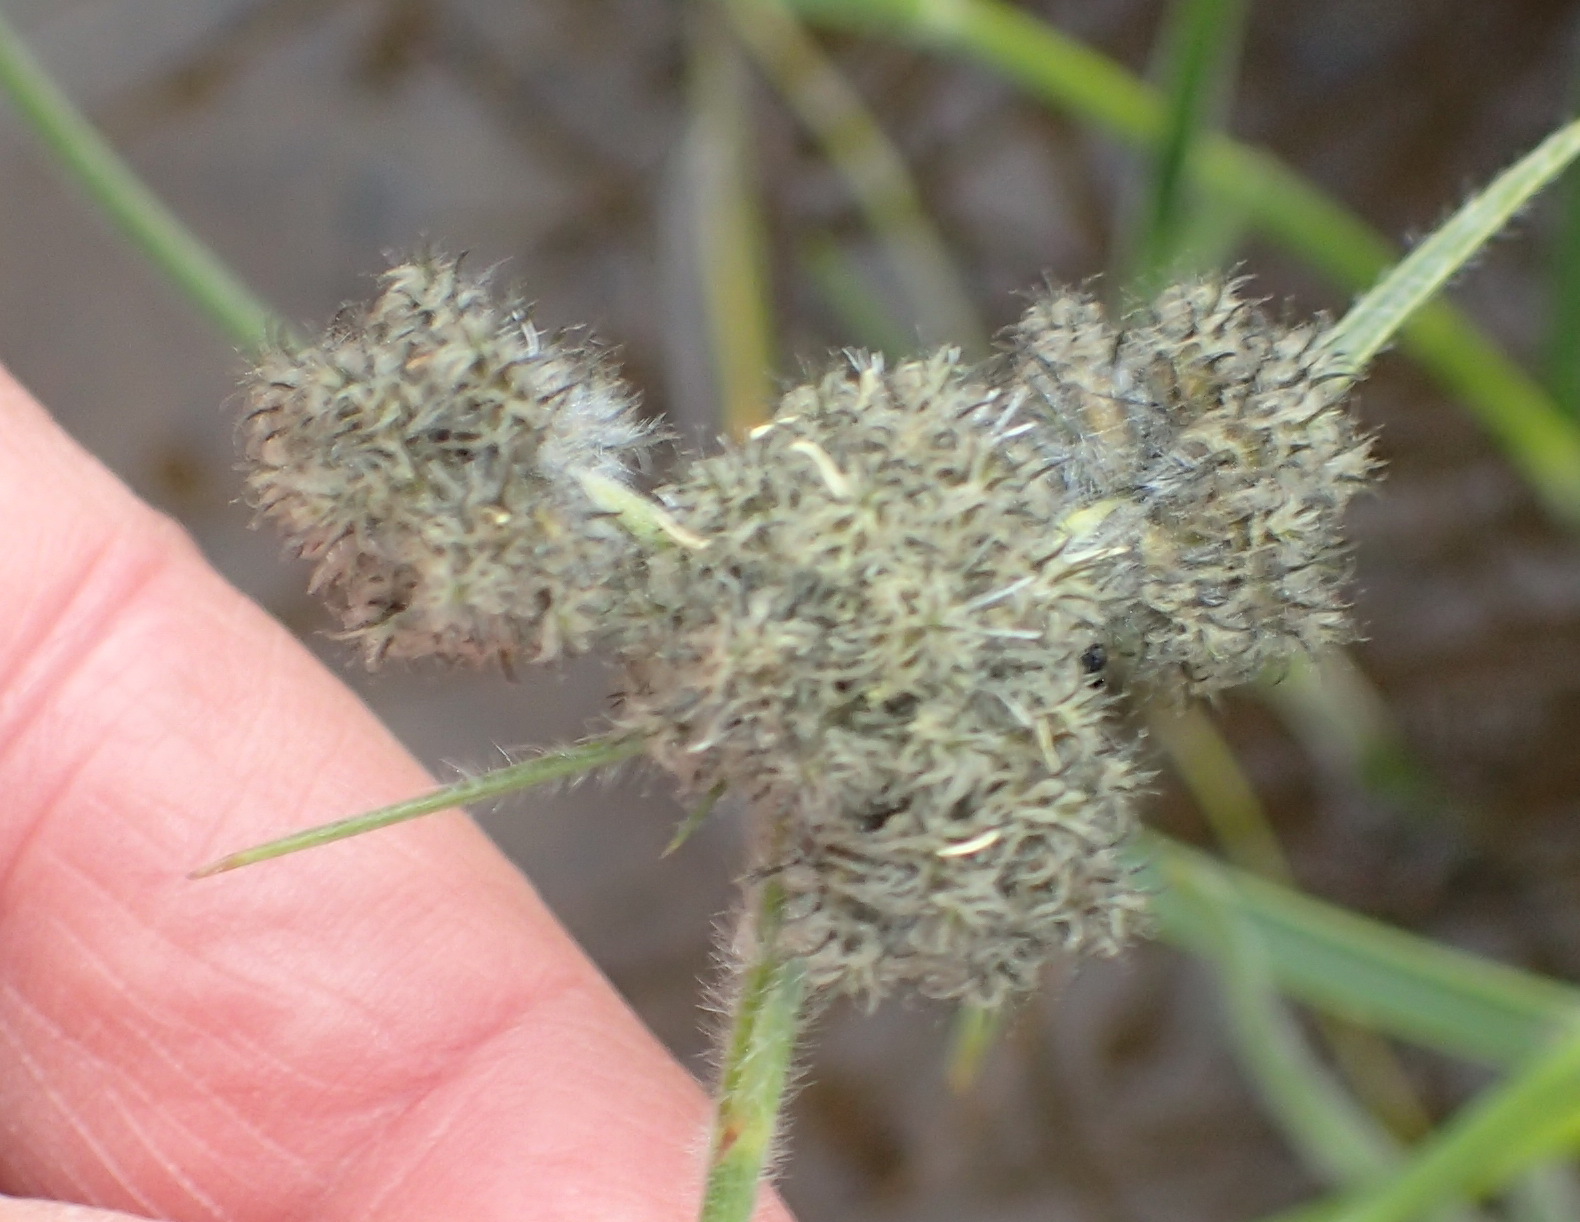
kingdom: Plantae
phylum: Tracheophyta
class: Liliopsida
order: Poales
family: Cyperaceae
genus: Fuirena
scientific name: Fuirena hirsuta
